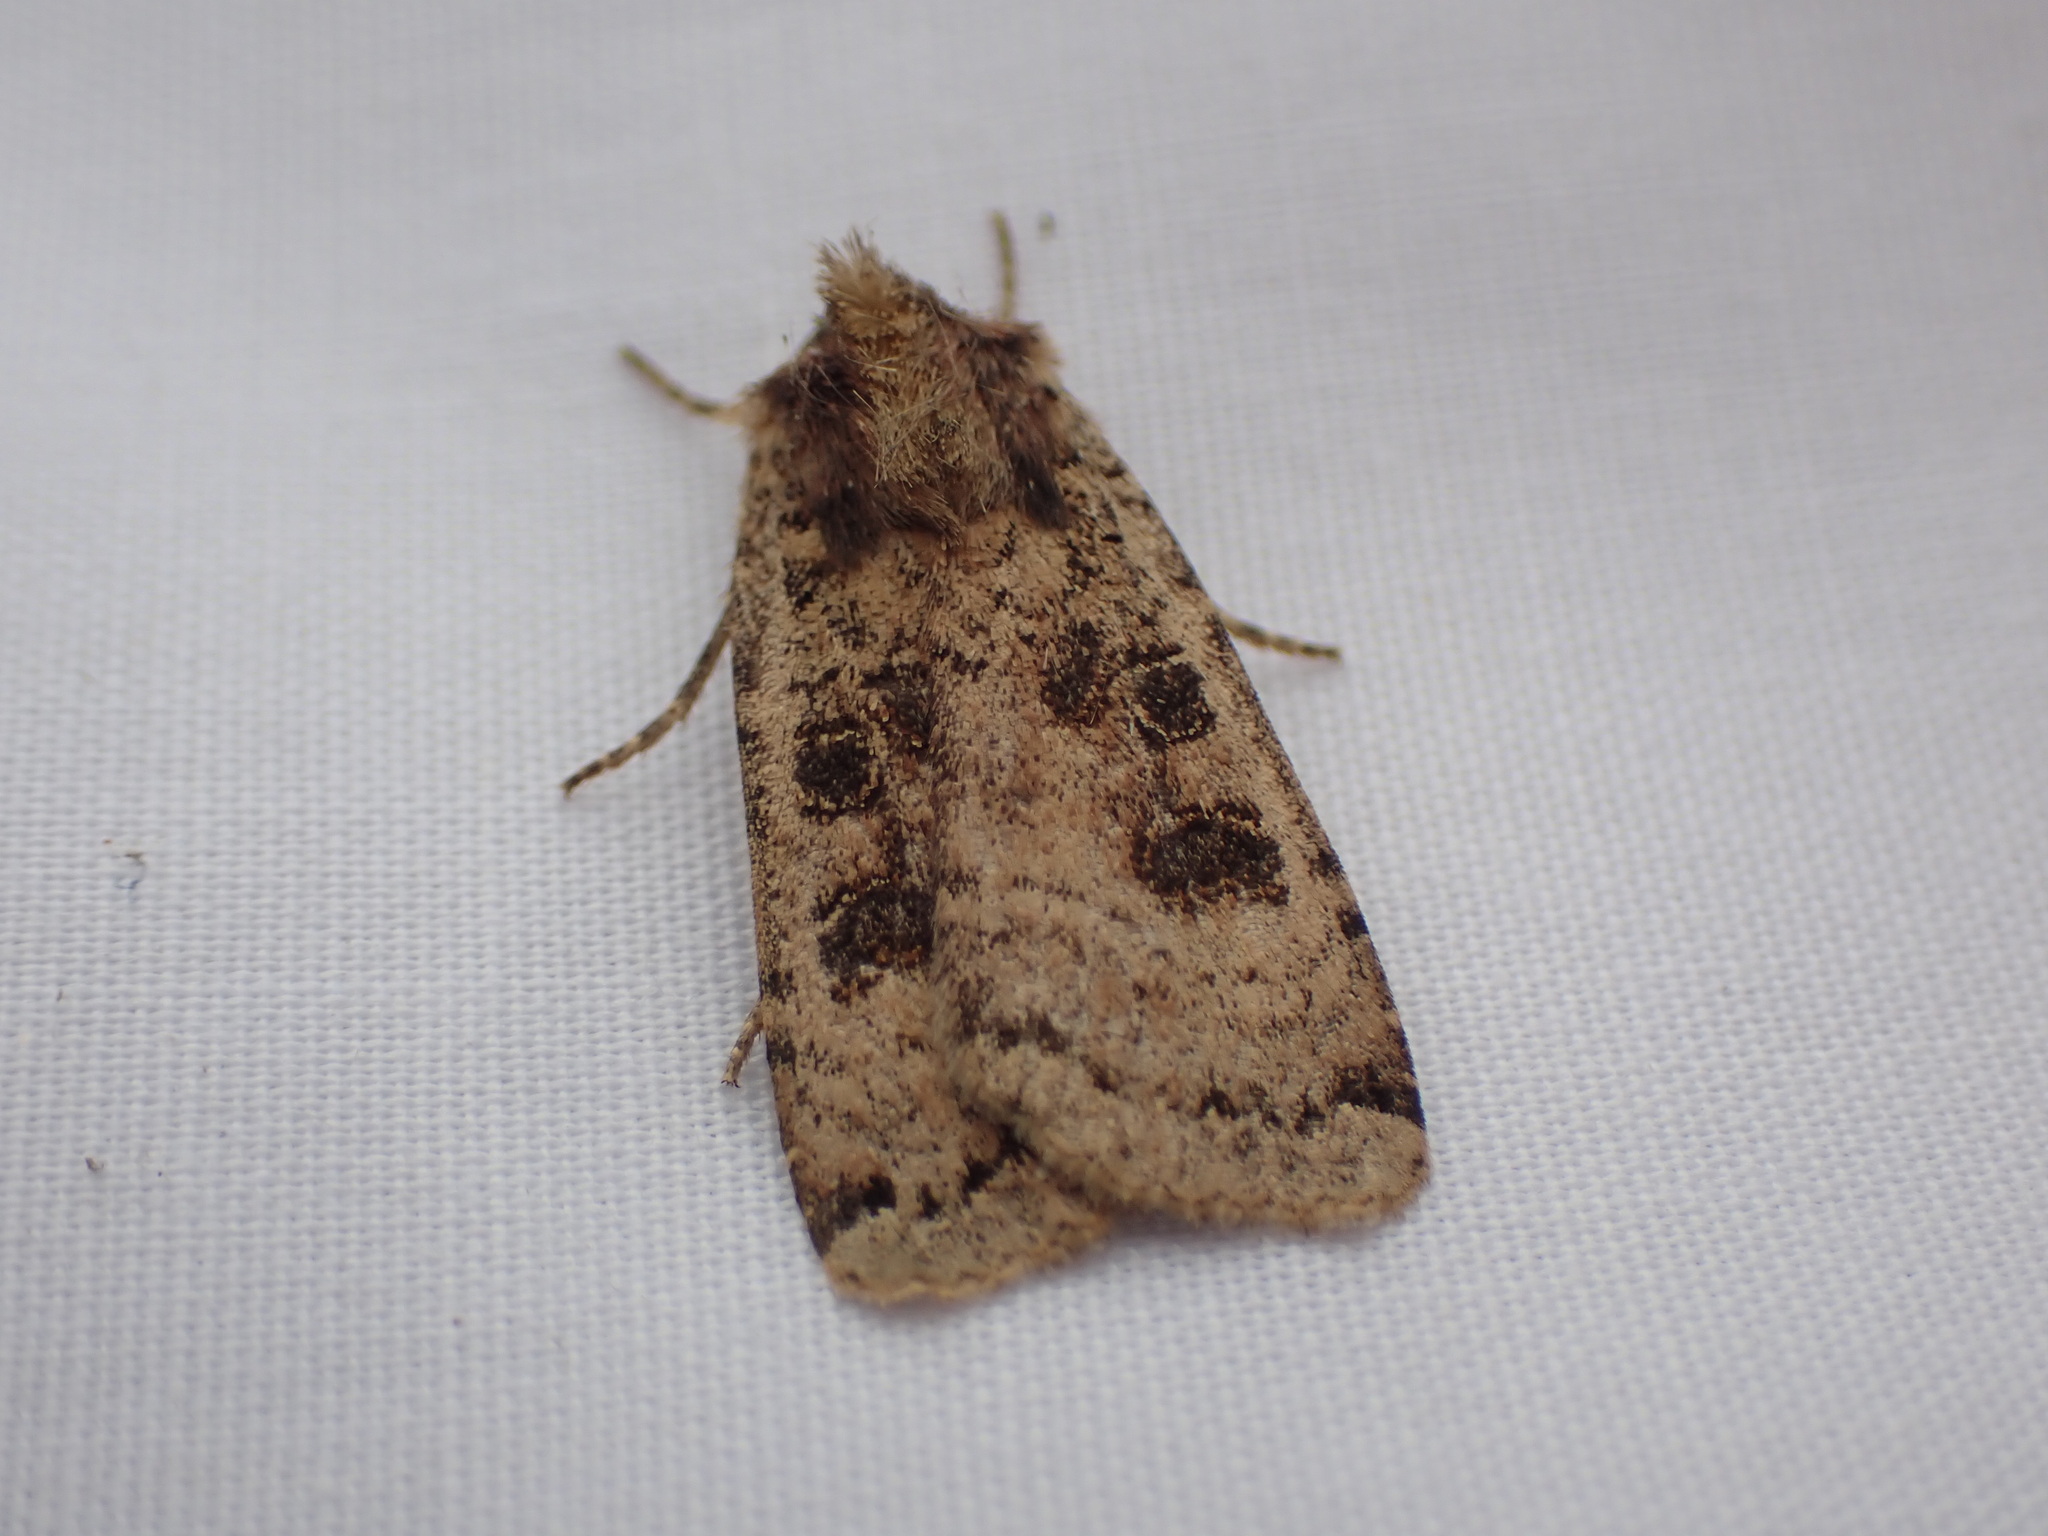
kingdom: Animalia
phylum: Arthropoda
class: Insecta
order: Lepidoptera
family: Noctuidae
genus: Xestia
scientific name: Xestia plebeia
